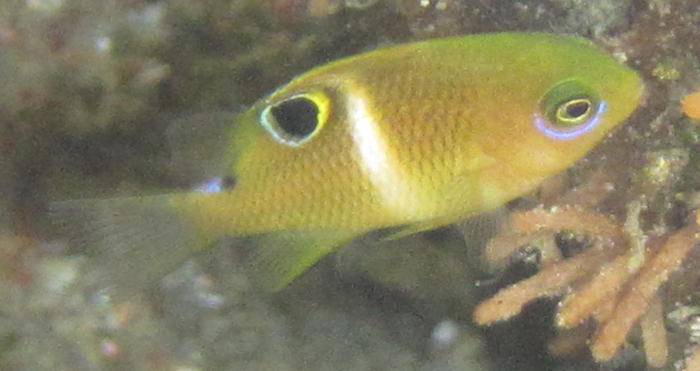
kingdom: Animalia
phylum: Chordata
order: Perciformes
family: Pomacentridae
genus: Plectroglyphidodon
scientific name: Plectroglyphidodon leucozonus
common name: White-band damsel
